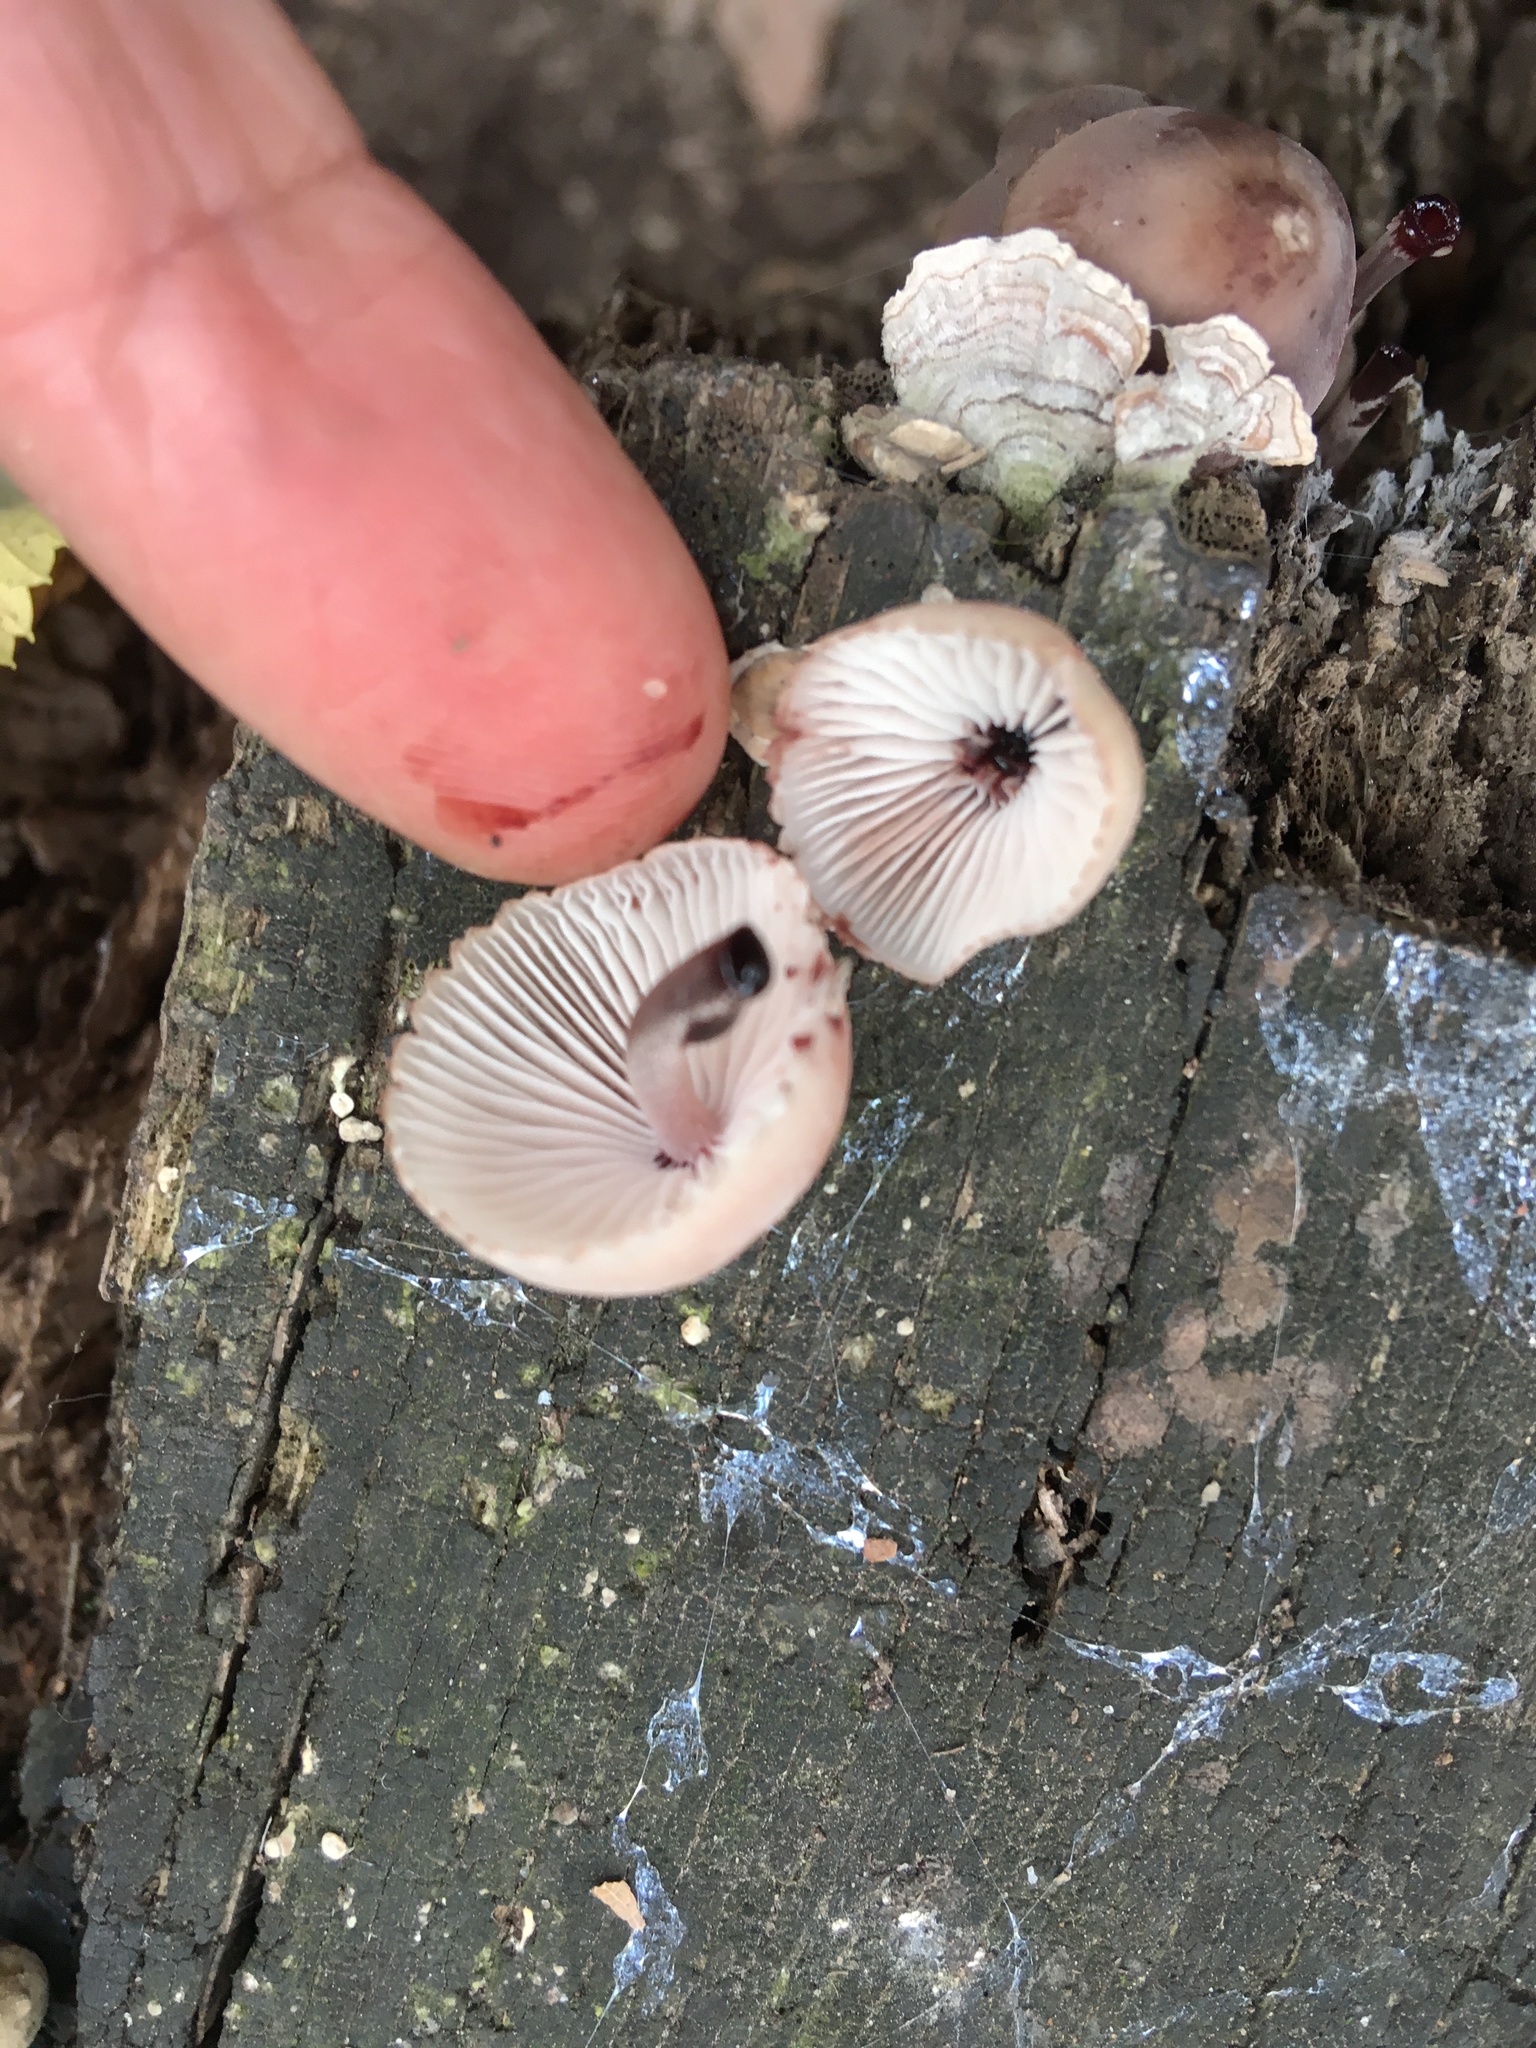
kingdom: Fungi
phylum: Basidiomycota
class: Agaricomycetes
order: Agaricales
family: Mycenaceae
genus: Mycena
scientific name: Mycena haematopus
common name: Burgundydrop bonnet
